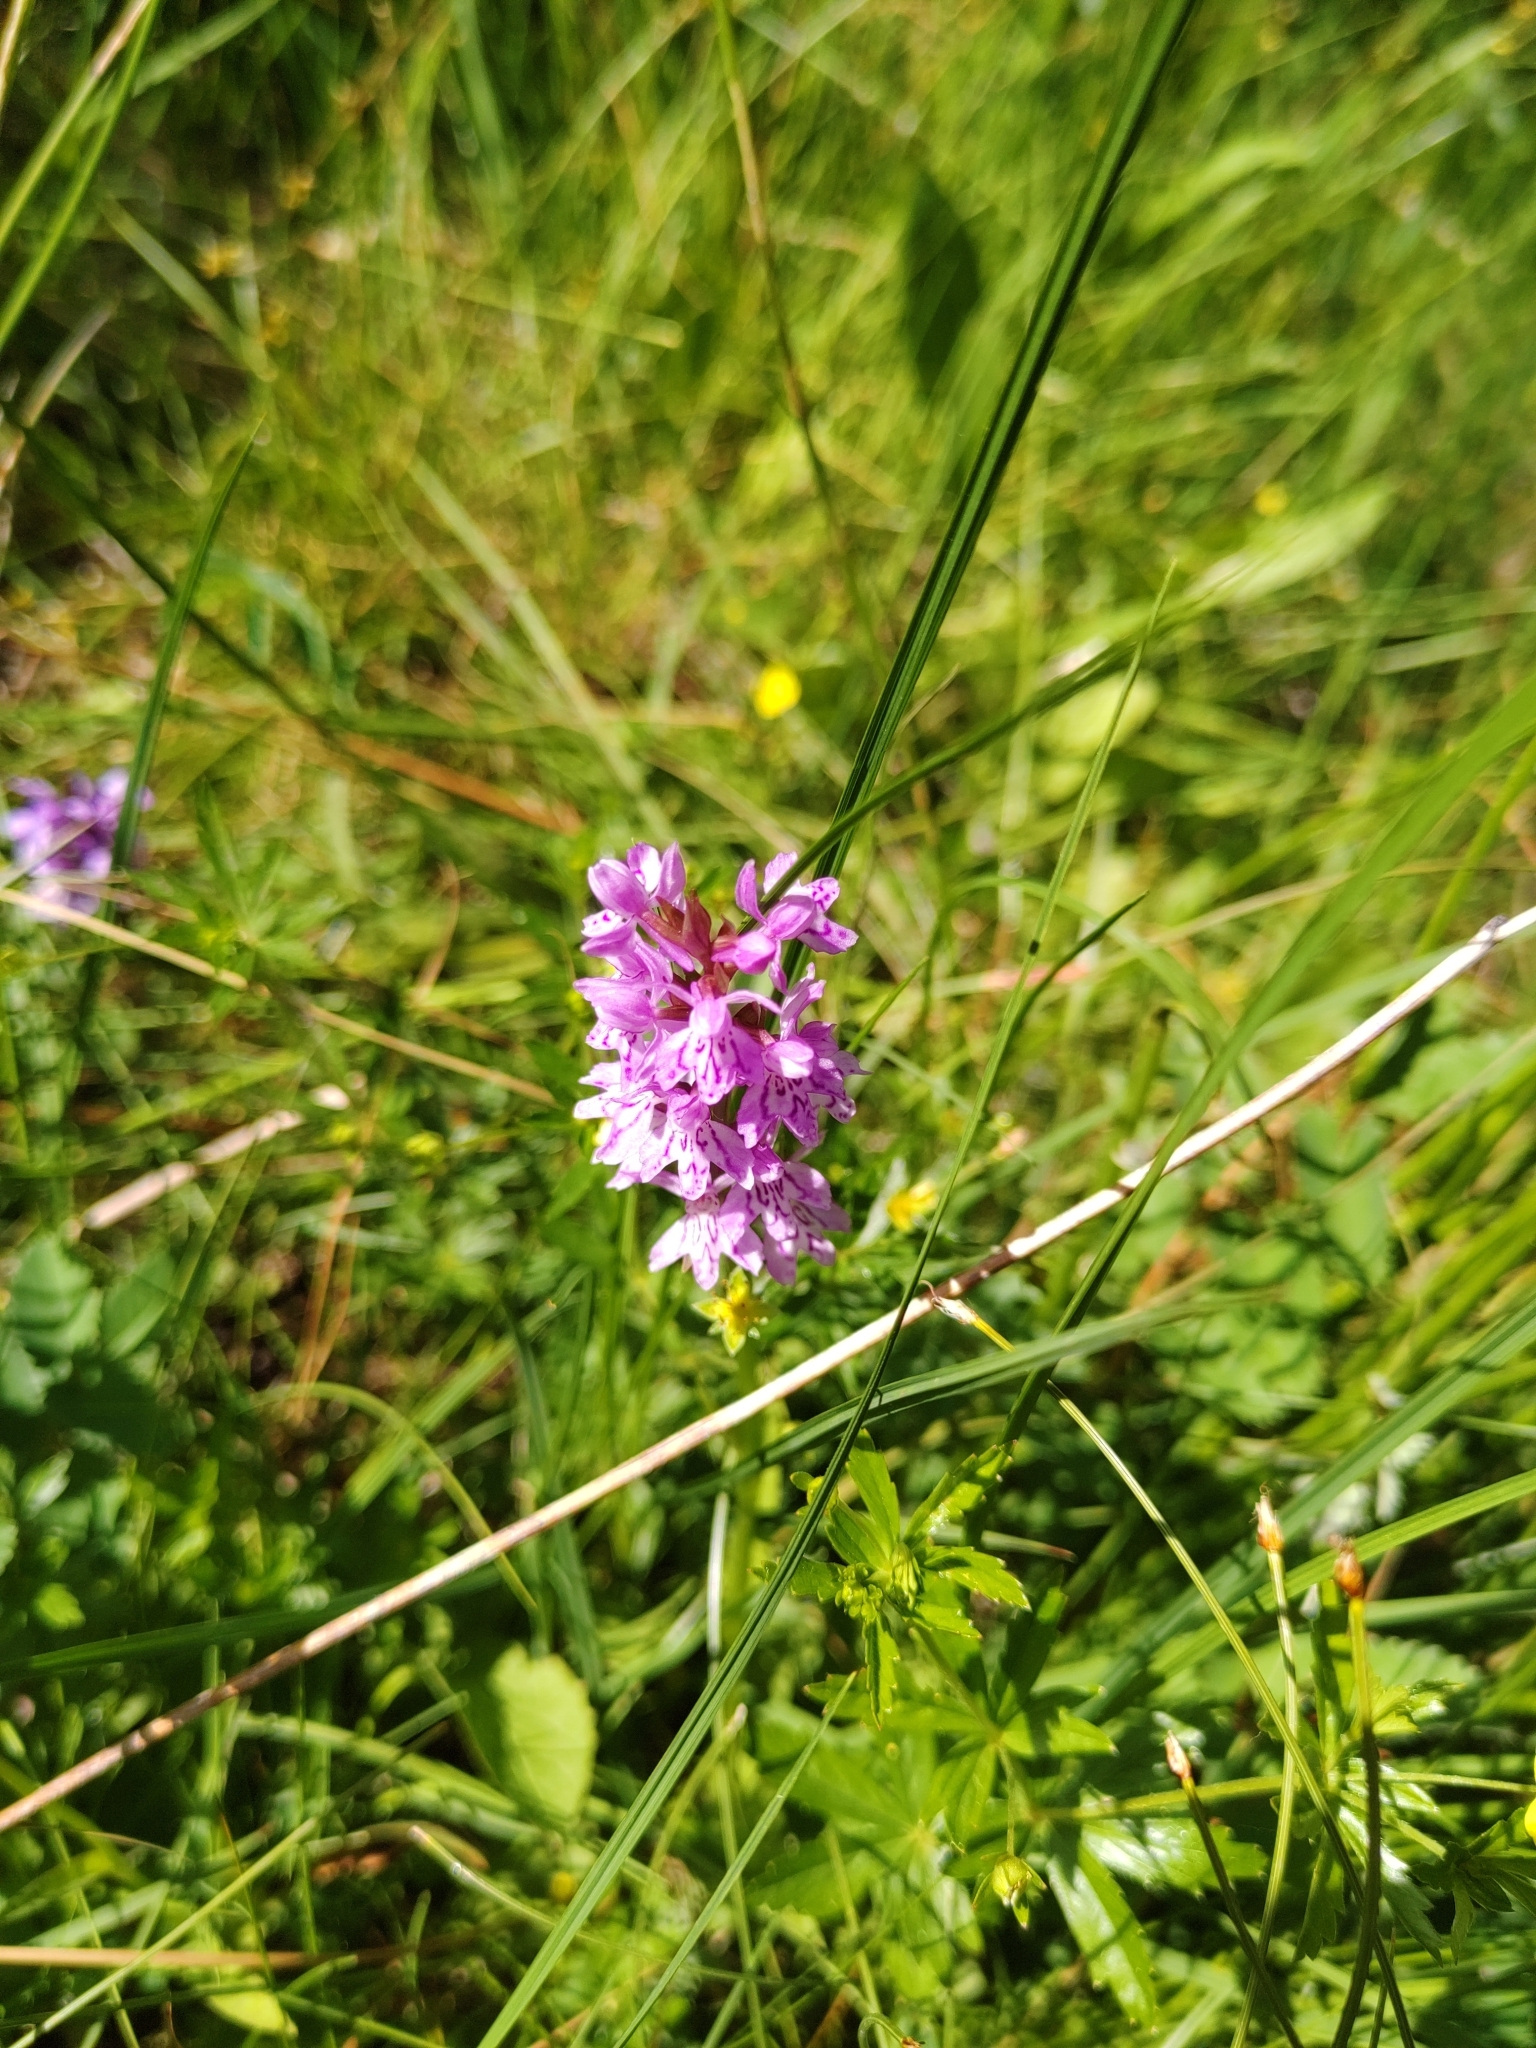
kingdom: Plantae
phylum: Tracheophyta
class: Liliopsida
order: Asparagales
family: Orchidaceae
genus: Dactylorhiza
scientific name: Dactylorhiza maculata
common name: Heath spotted-orchid
